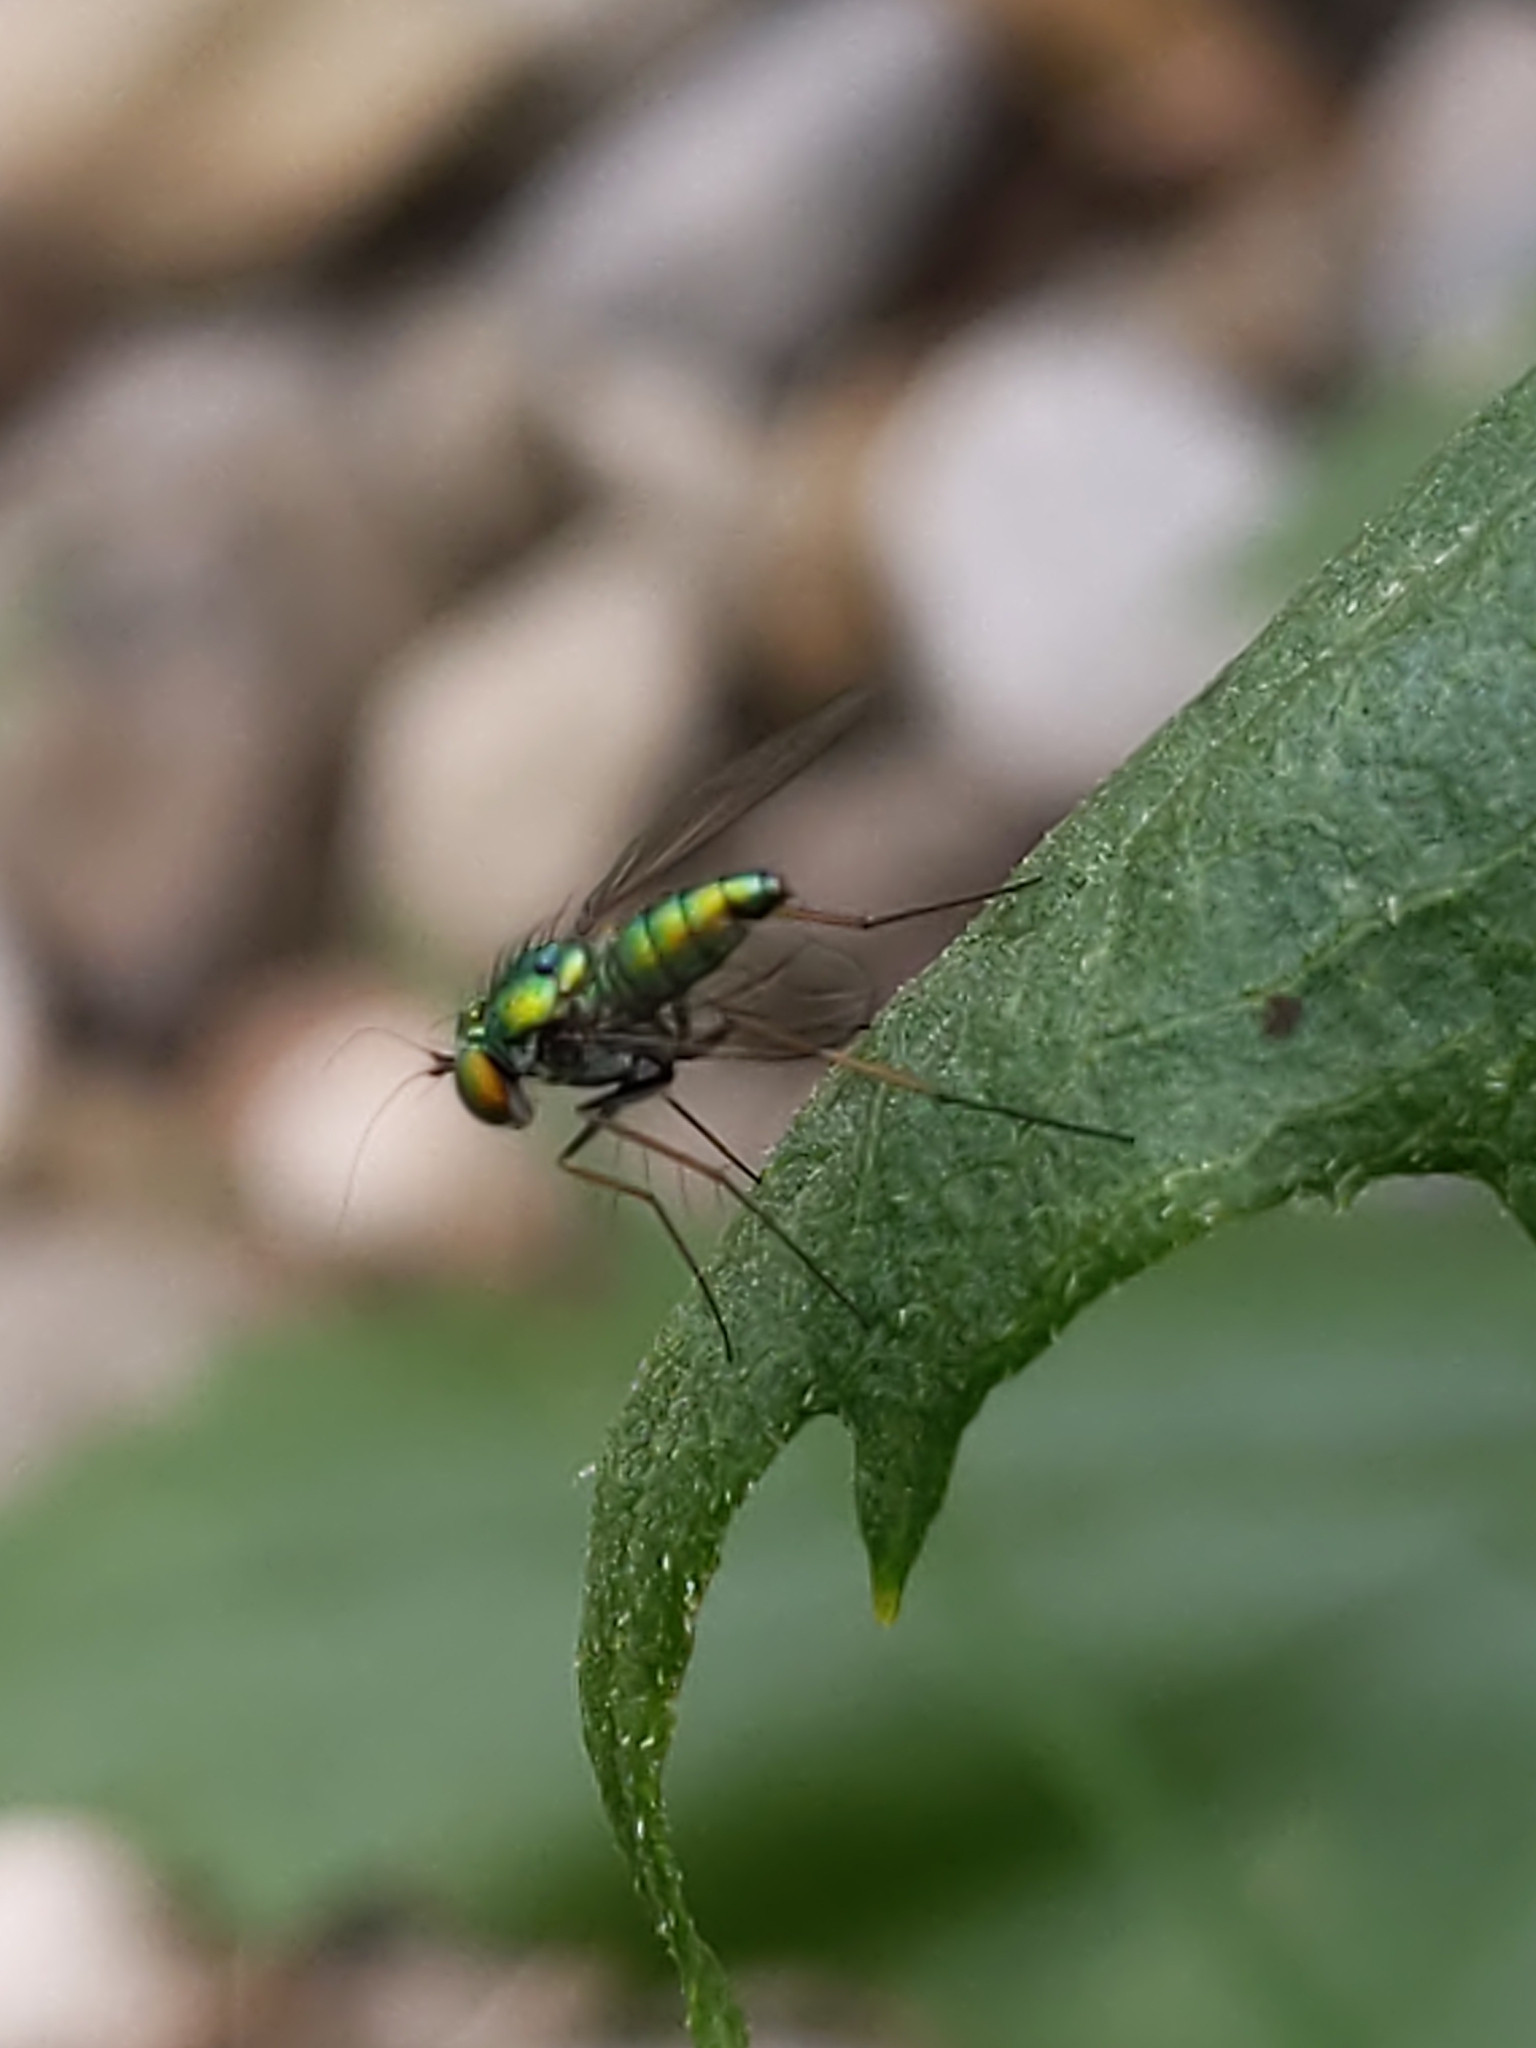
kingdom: Animalia
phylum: Arthropoda
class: Insecta
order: Diptera
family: Dolichopodidae
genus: Condylostylus
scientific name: Condylostylus
